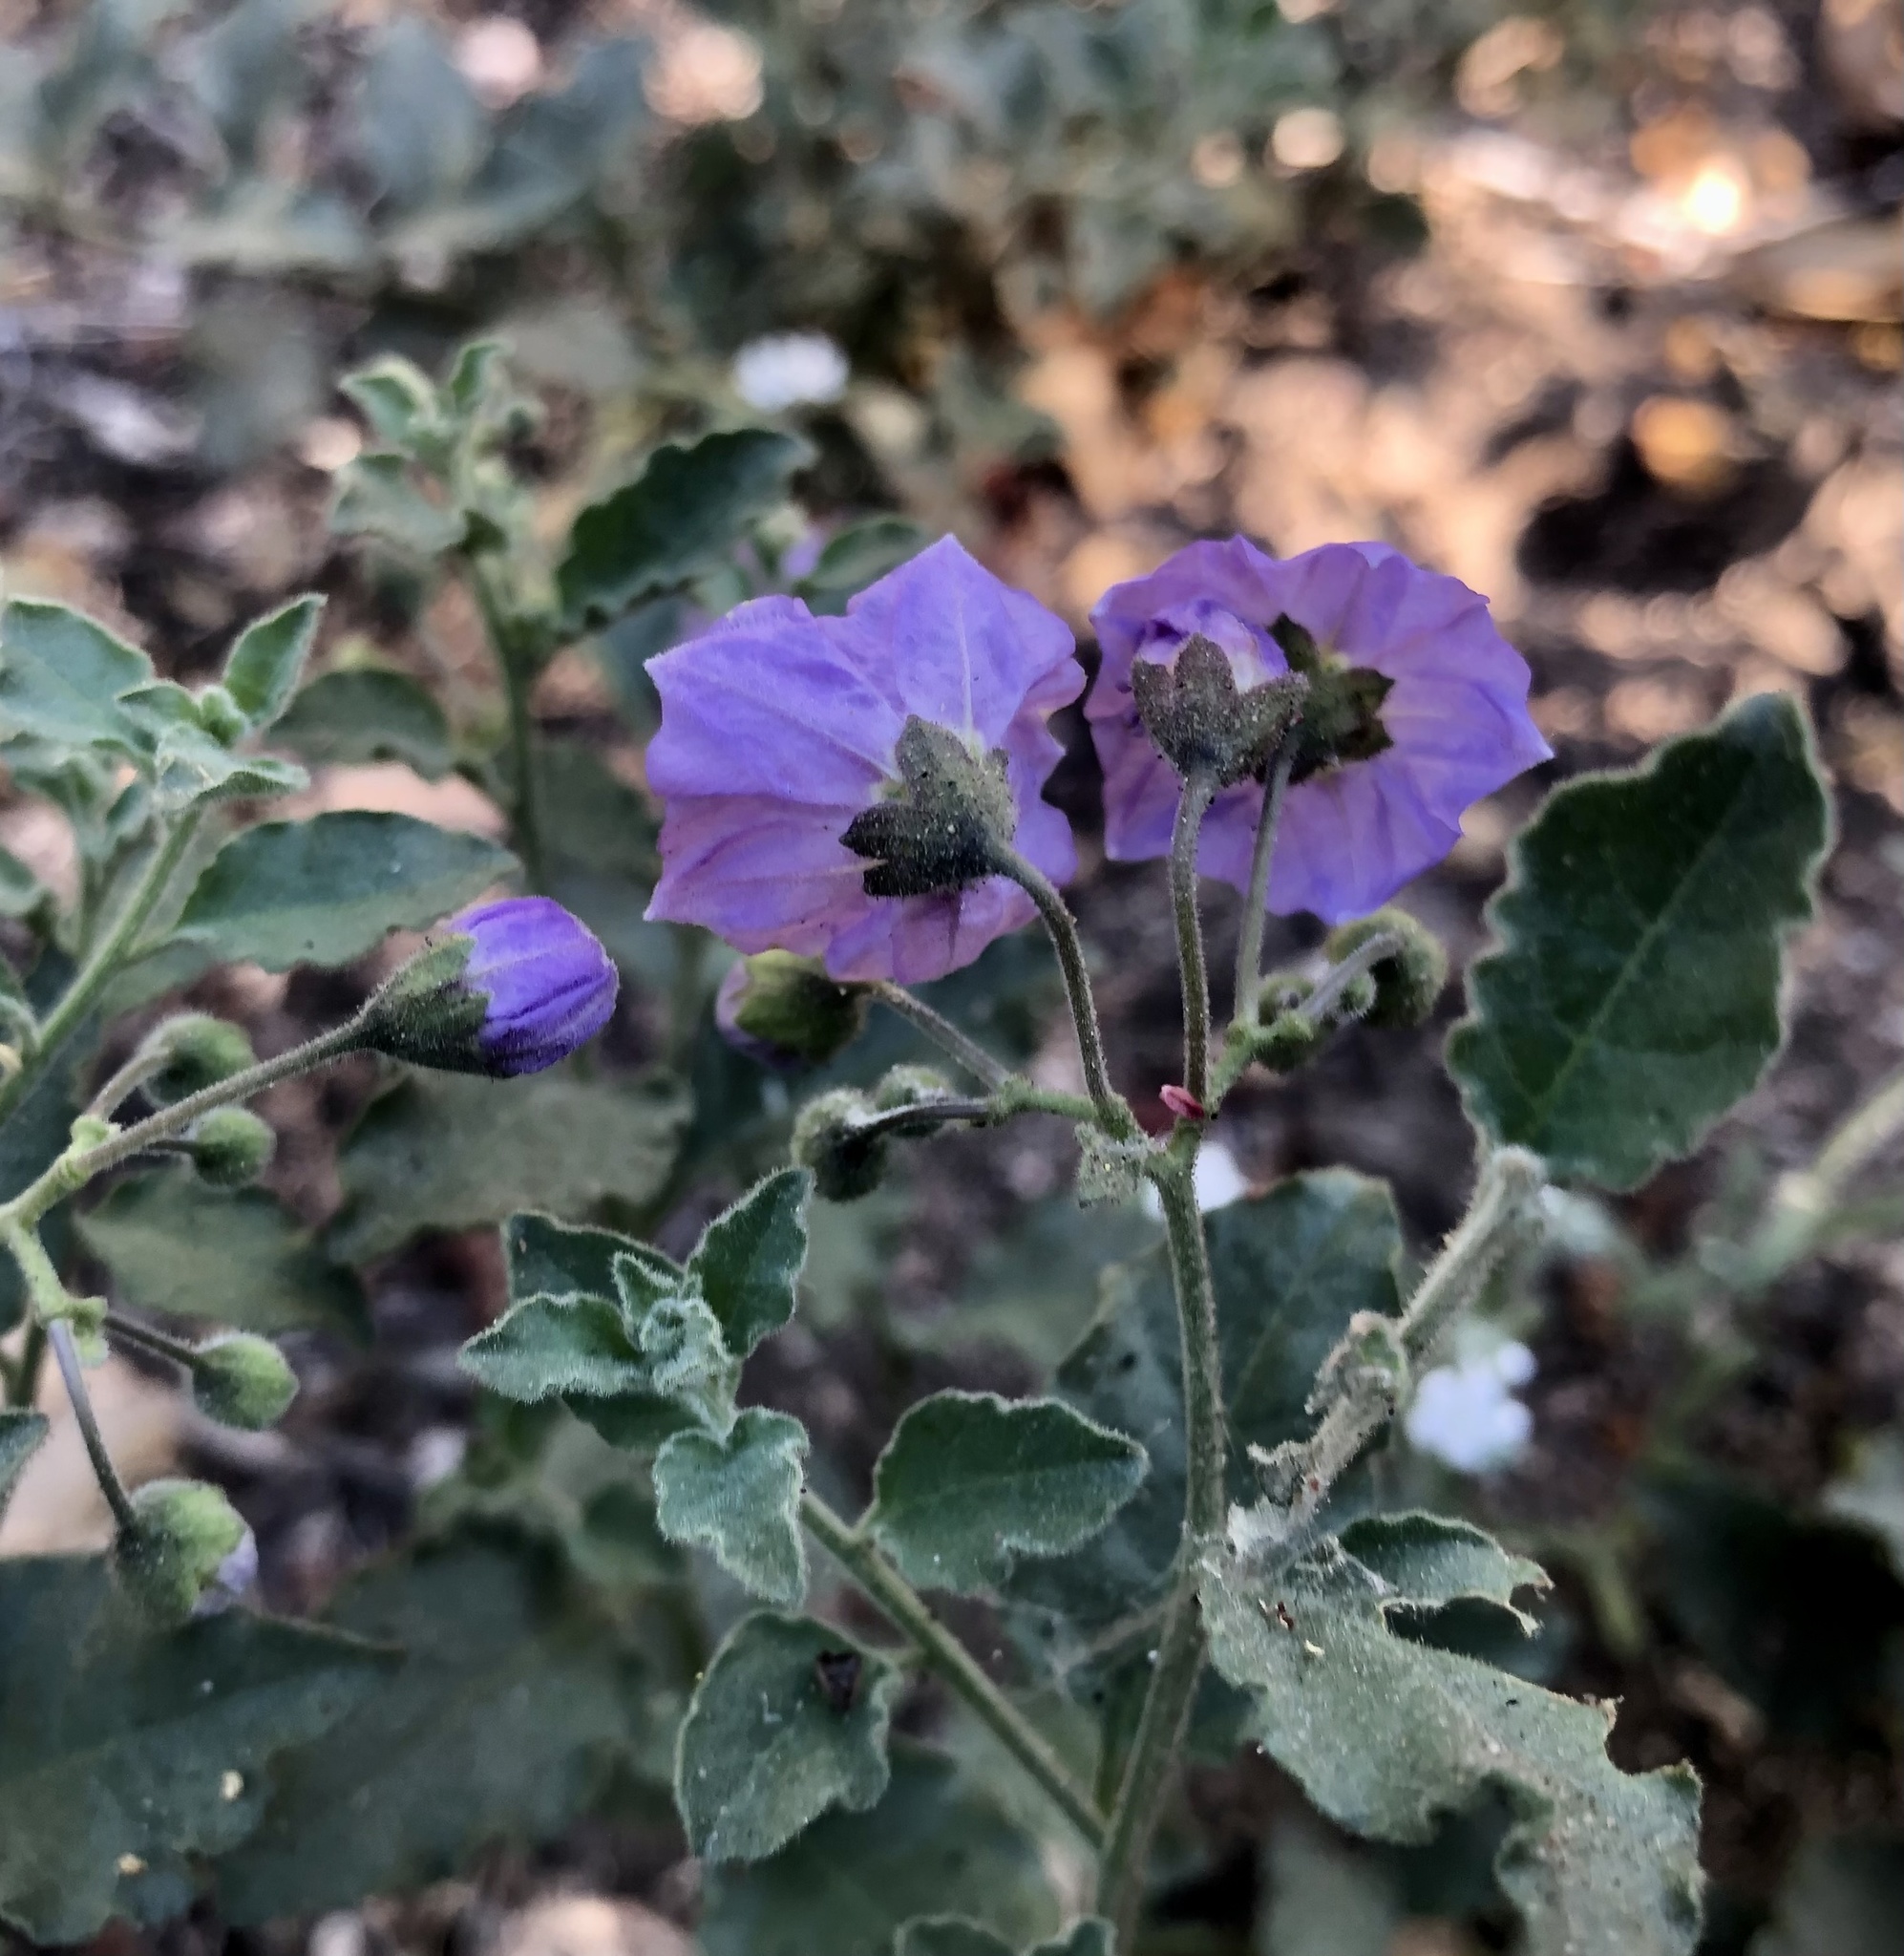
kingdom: Plantae
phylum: Tracheophyta
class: Magnoliopsida
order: Solanales
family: Solanaceae
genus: Solanum
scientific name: Solanum umbelliferum
